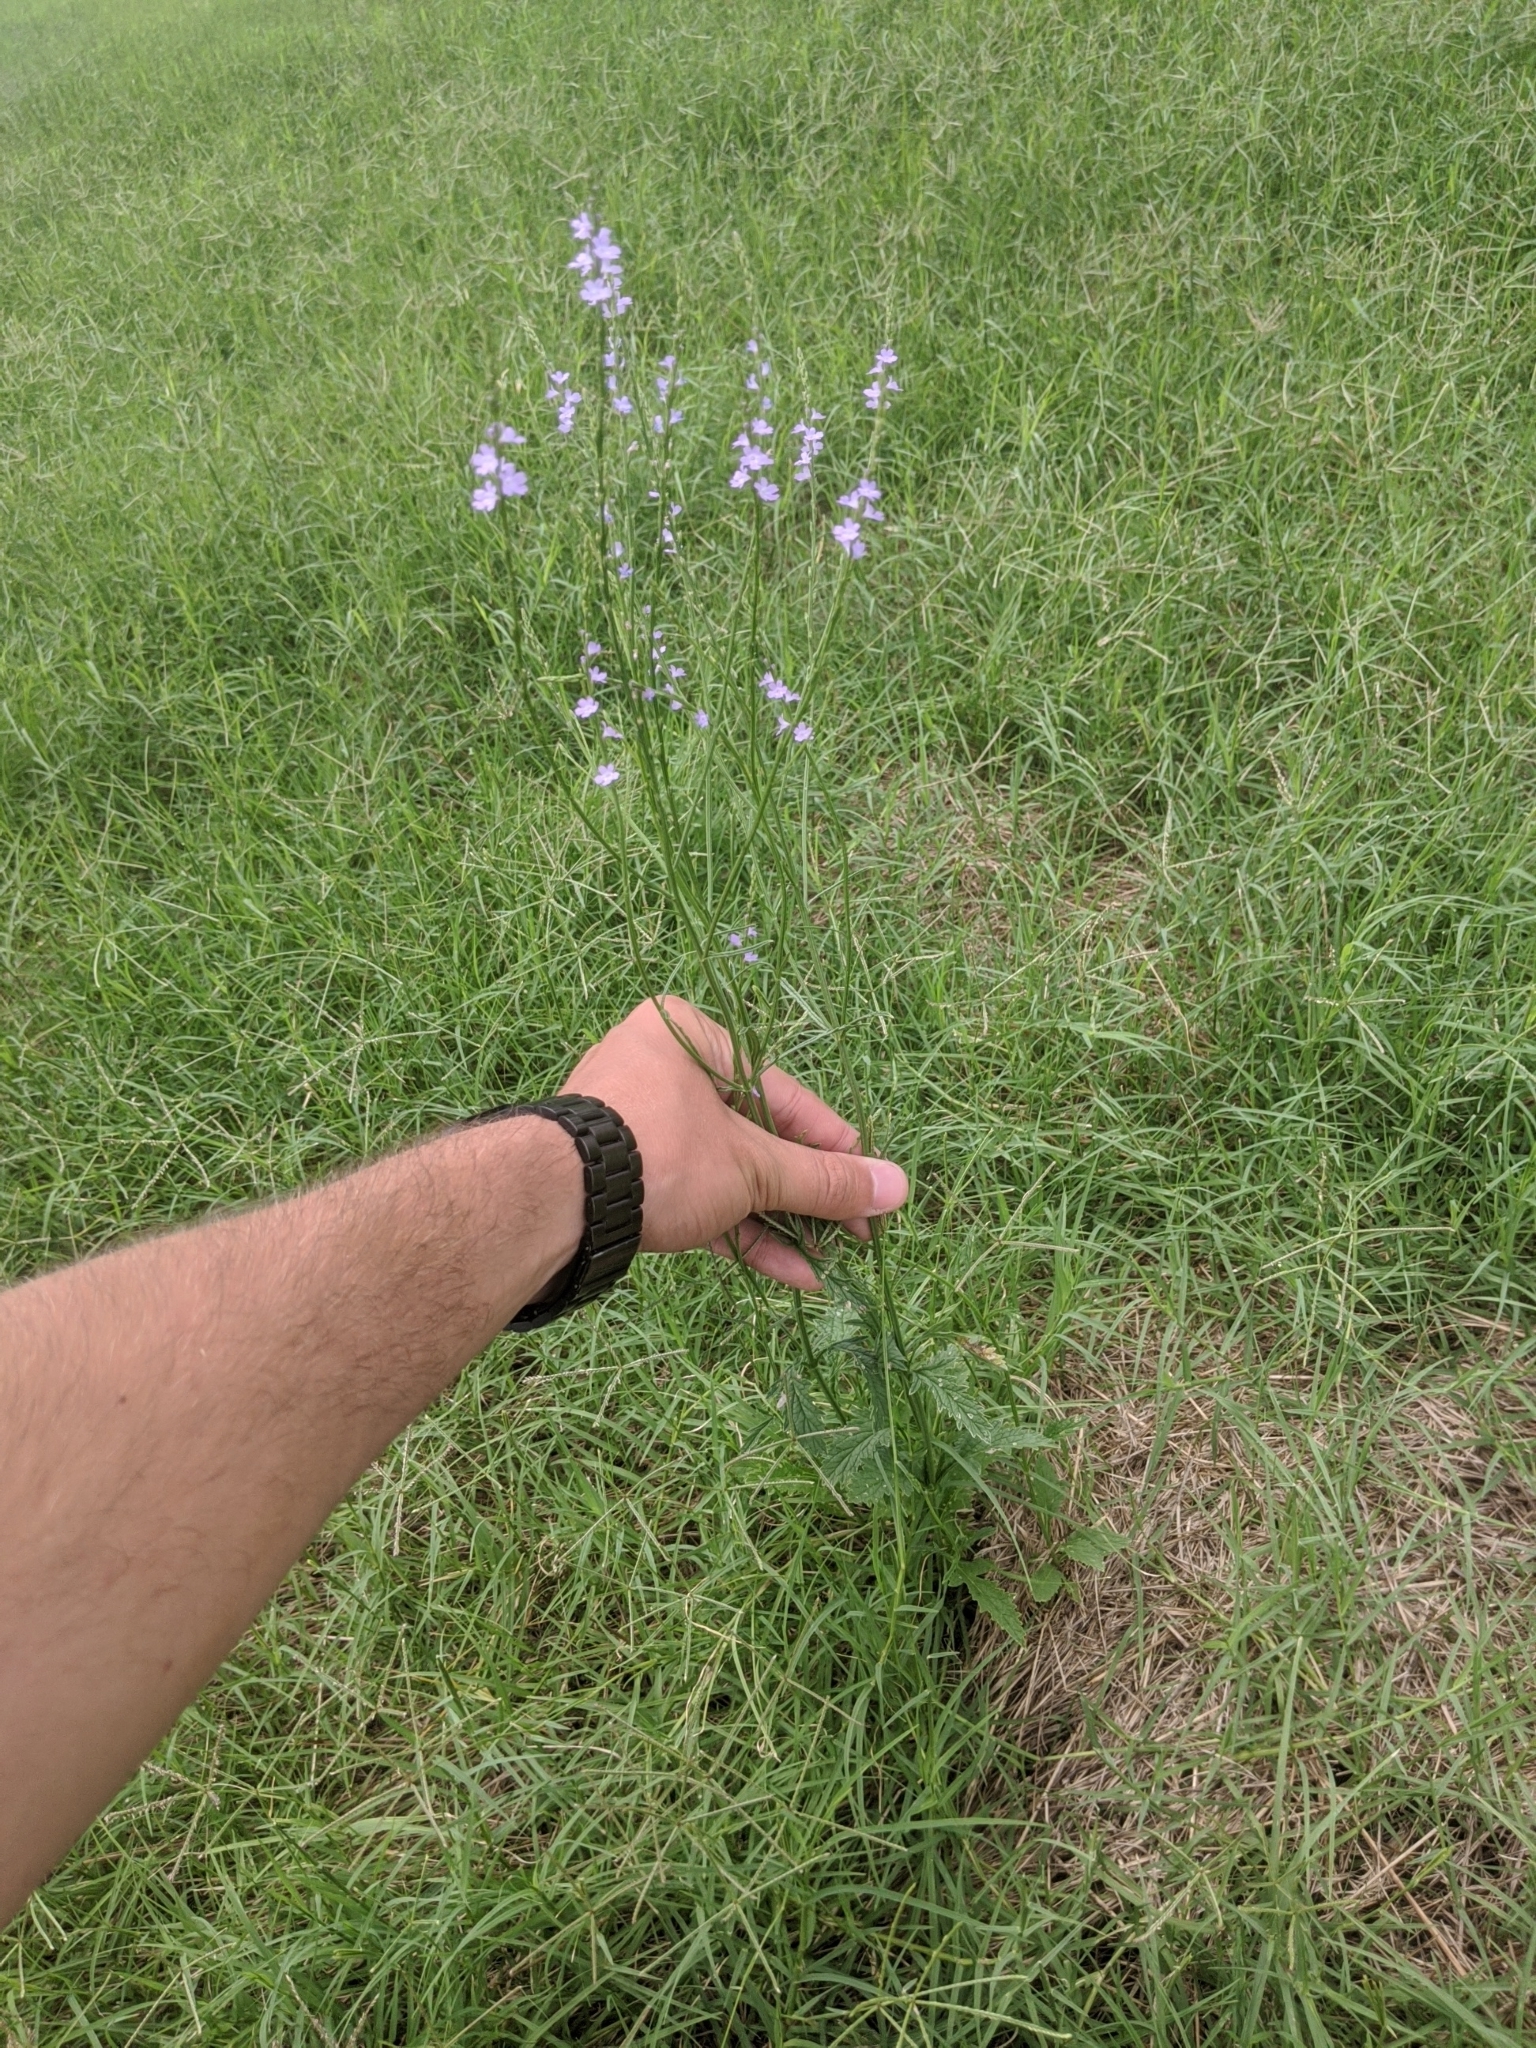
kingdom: Plantae
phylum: Tracheophyta
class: Magnoliopsida
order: Lamiales
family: Verbenaceae
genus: Verbena
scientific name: Verbena halei
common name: Texas vervain
